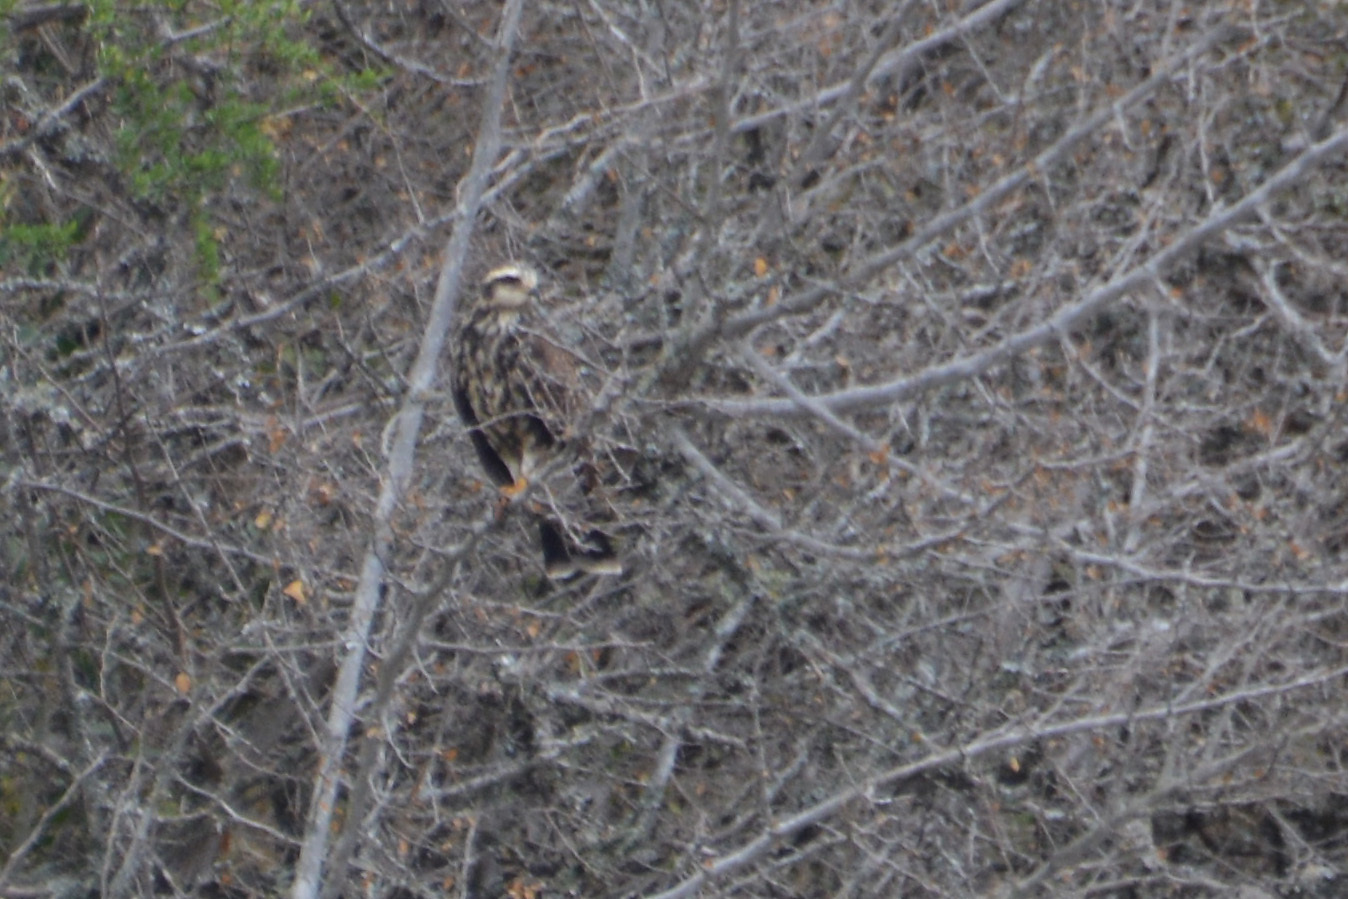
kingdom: Animalia
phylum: Chordata
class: Aves
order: Accipitriformes
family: Accipitridae
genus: Rostrhamus
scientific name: Rostrhamus sociabilis
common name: Snail kite
